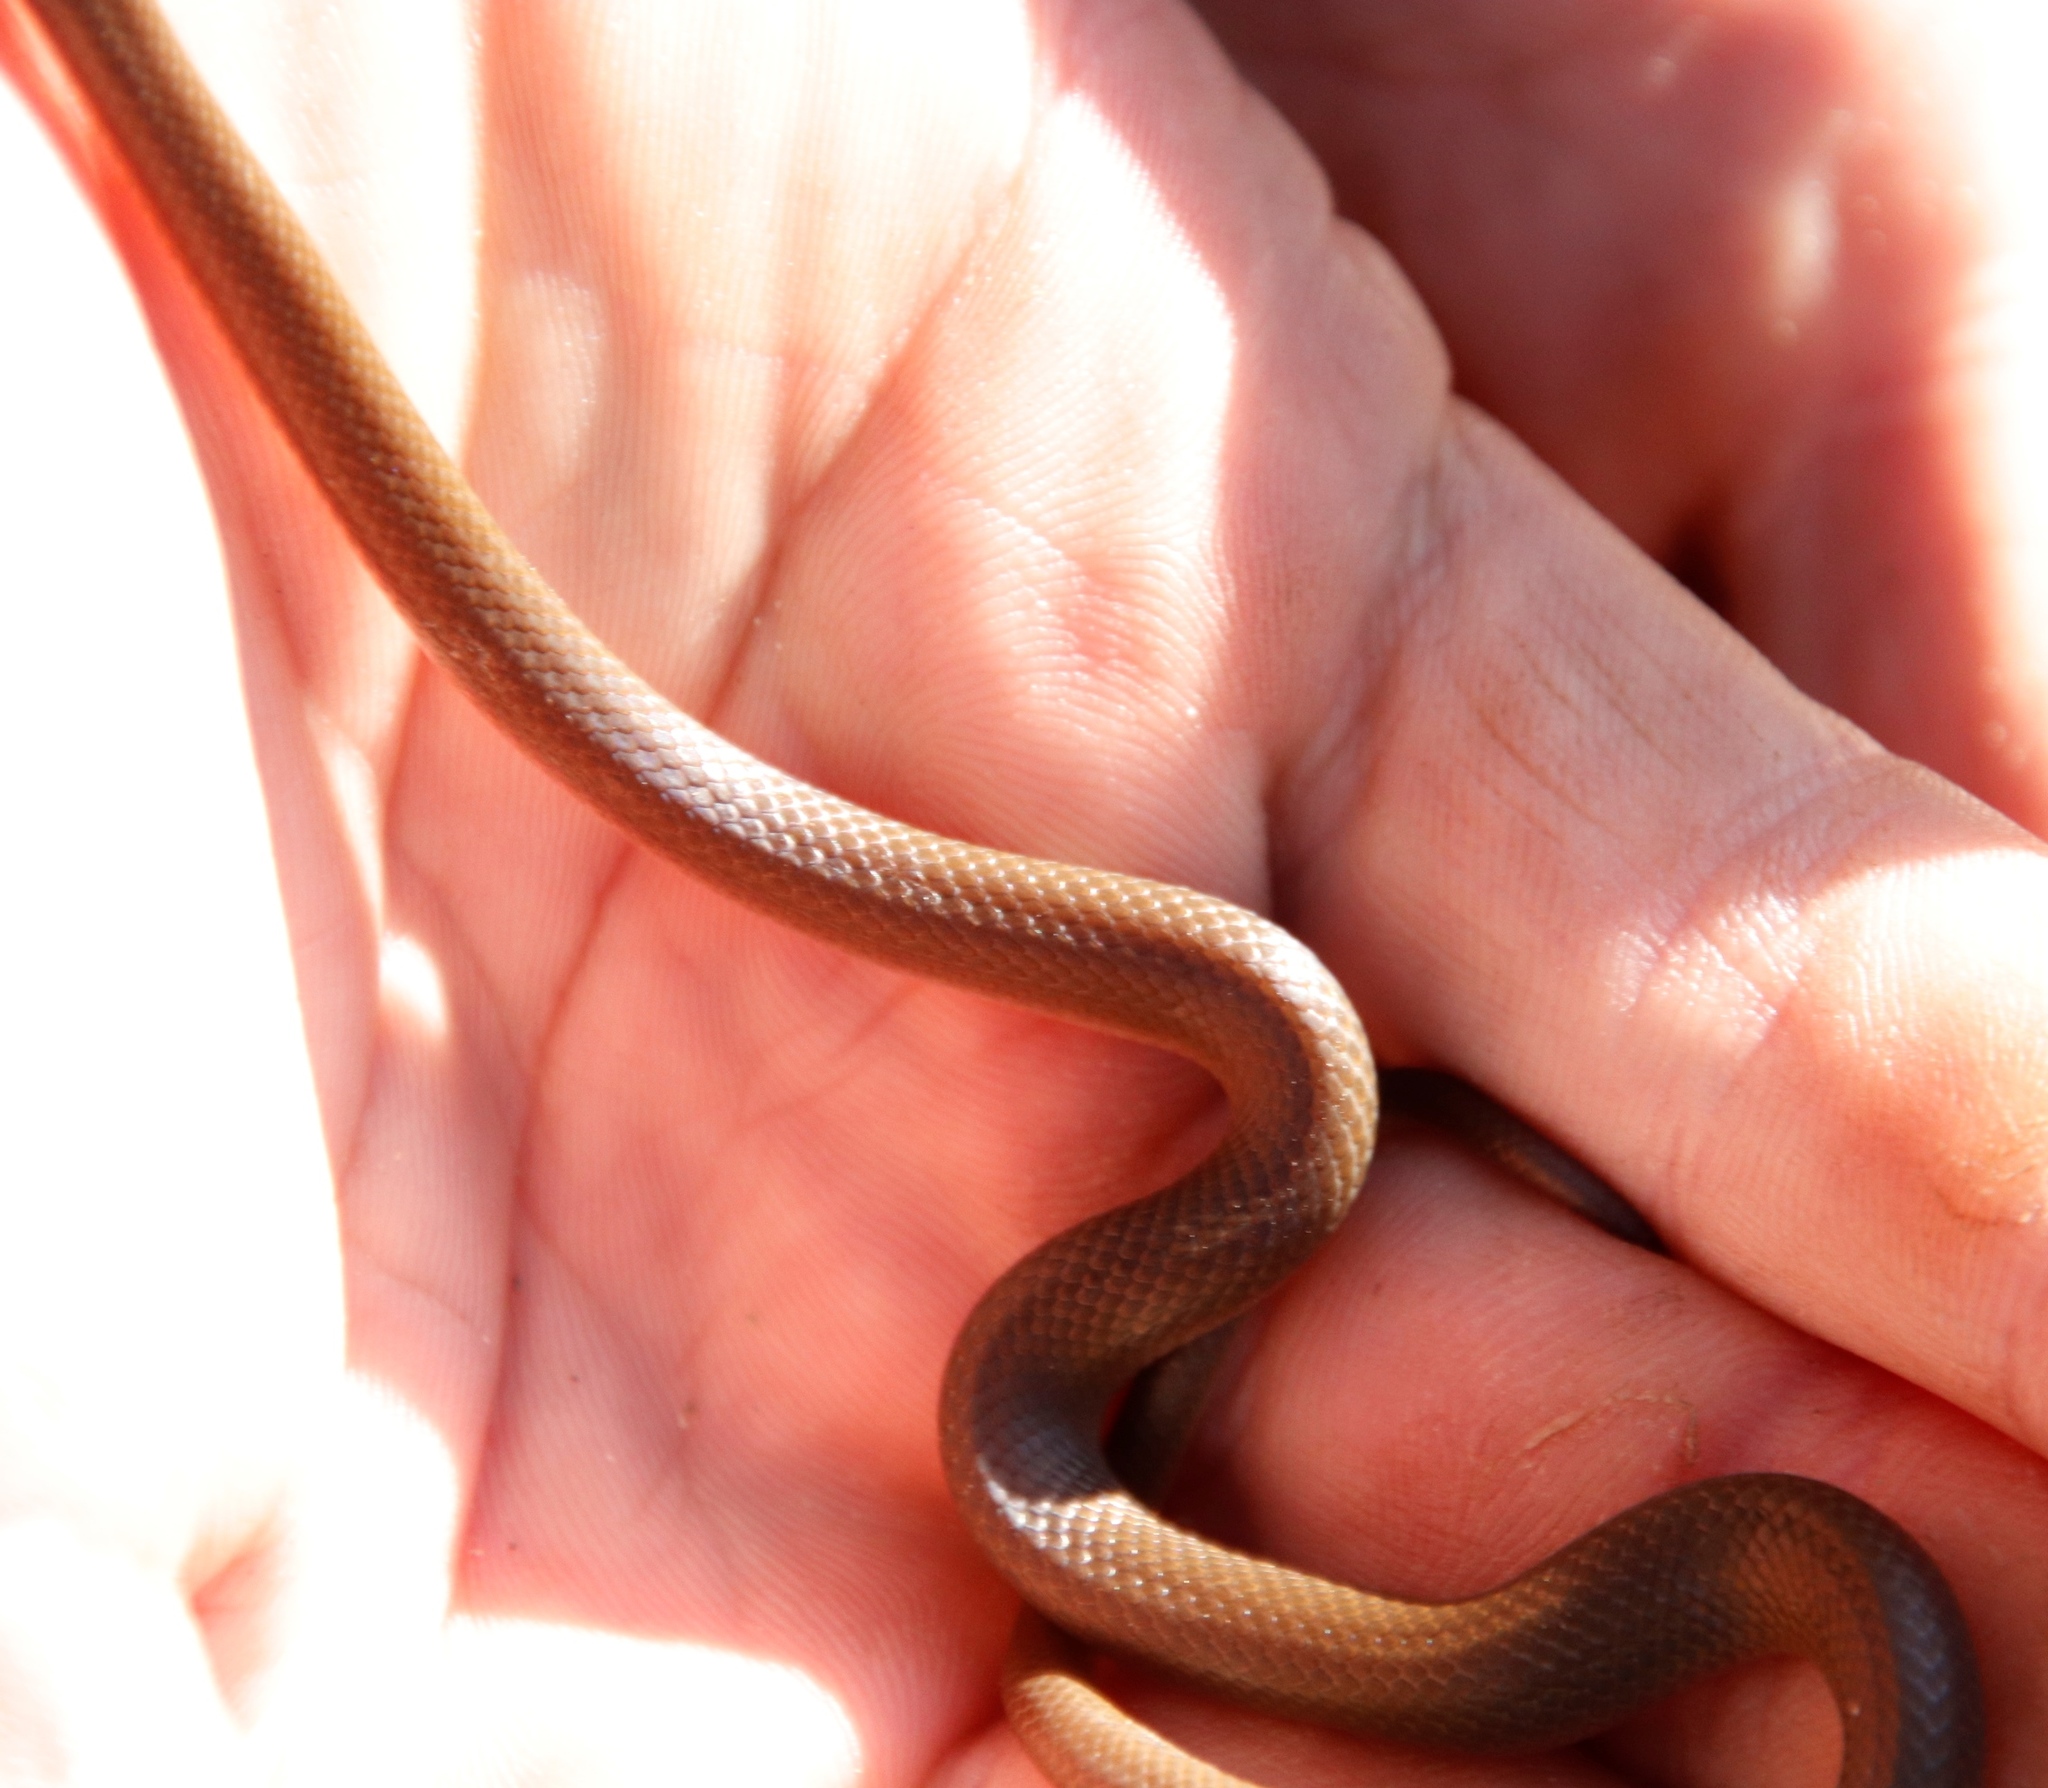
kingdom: Animalia
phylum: Chordata
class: Squamata
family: Lamprophiidae
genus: Lycodonomorphus
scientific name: Lycodonomorphus rufulus
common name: Brown water snake
